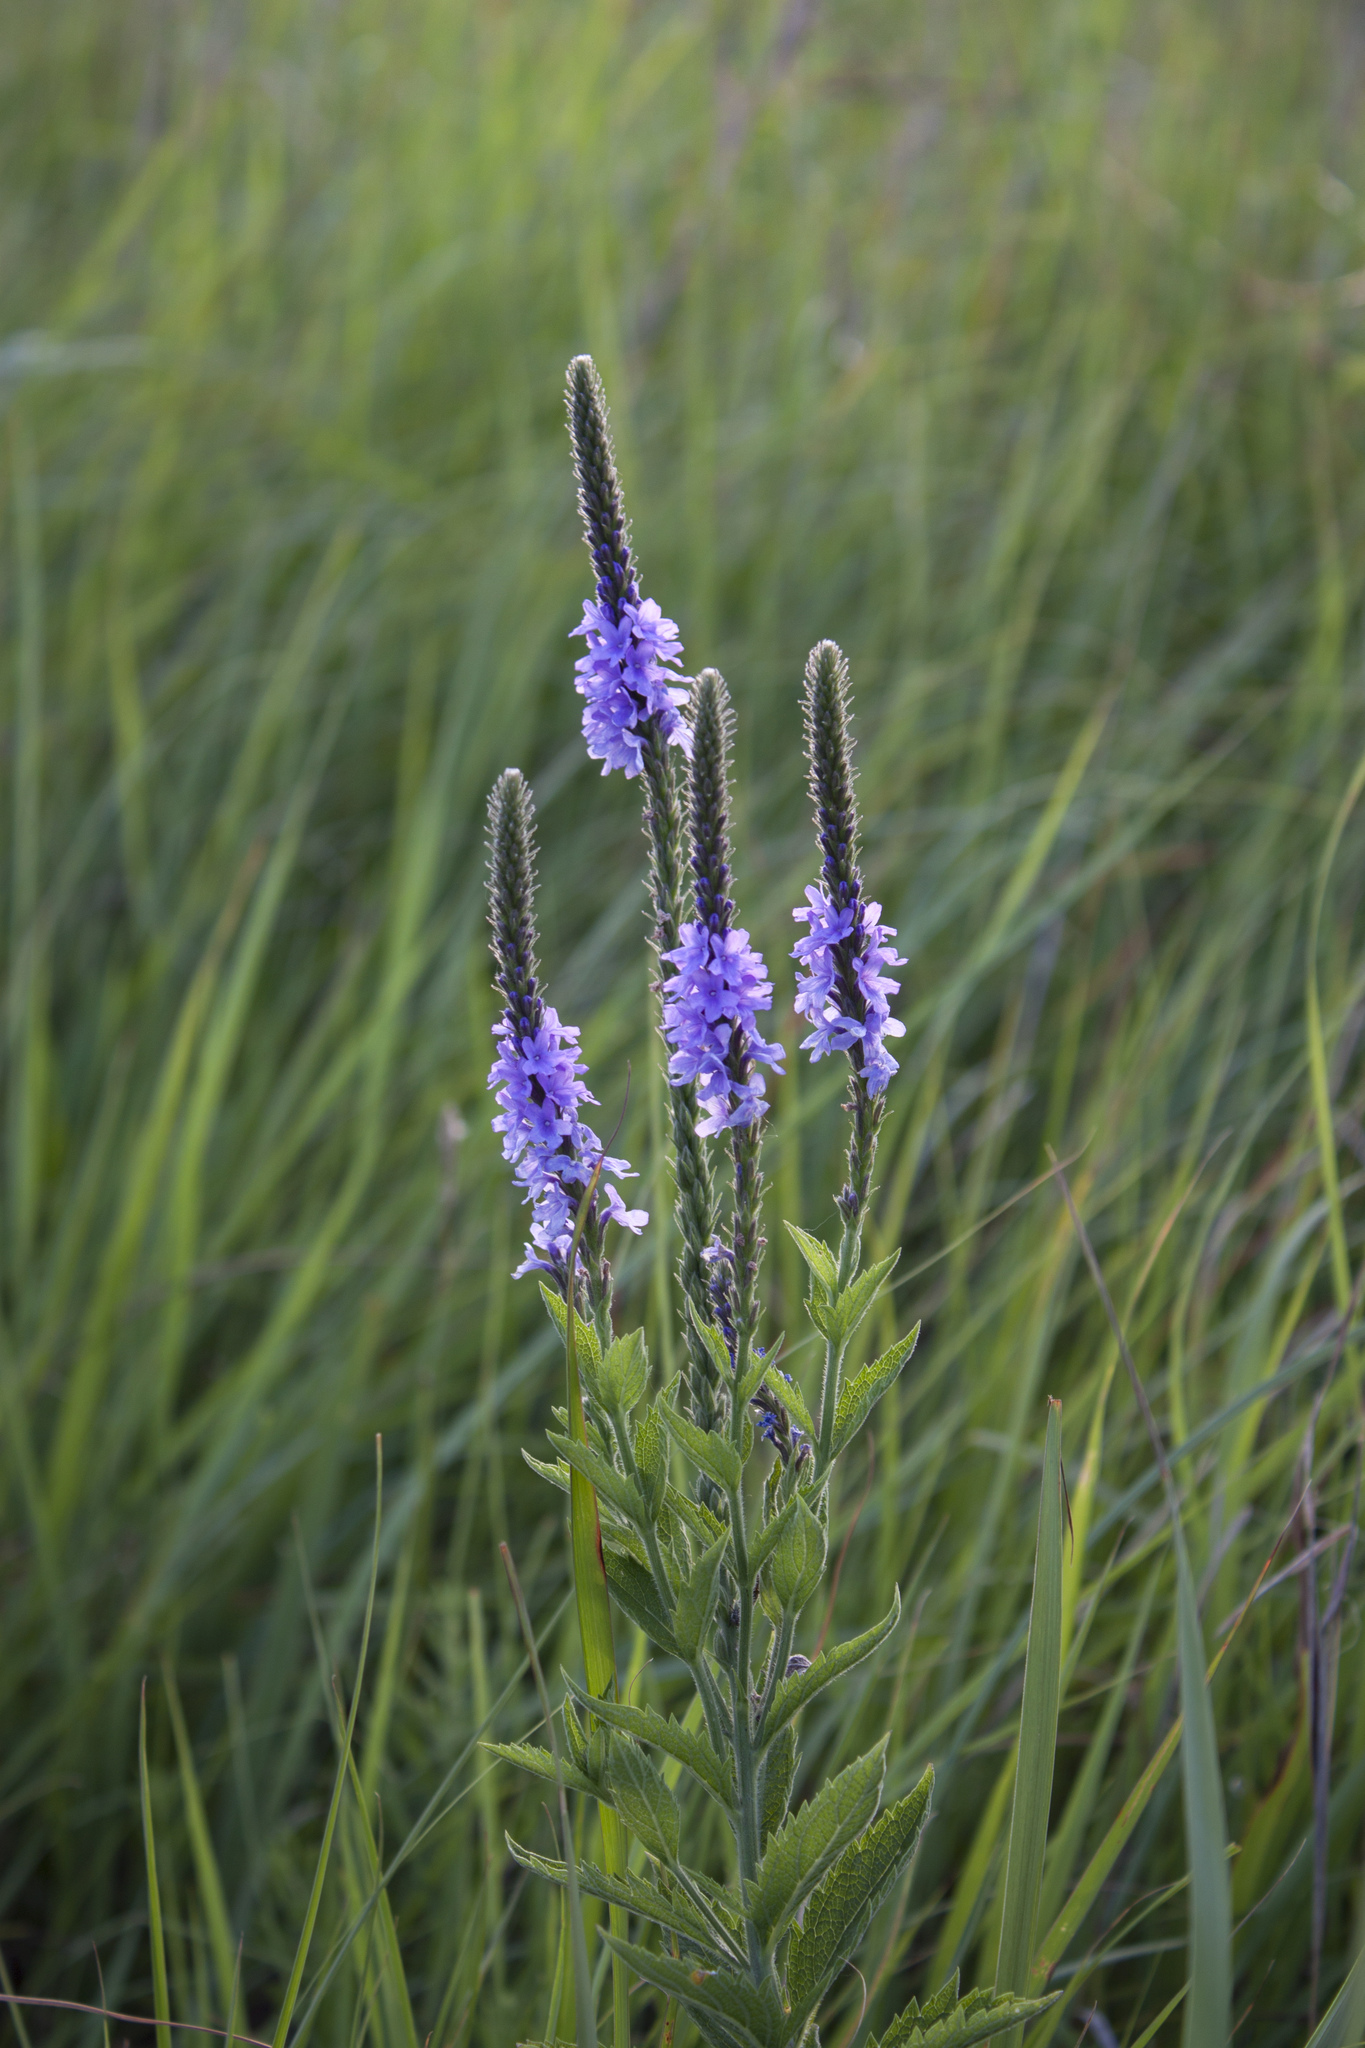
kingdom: Plantae
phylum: Tracheophyta
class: Magnoliopsida
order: Lamiales
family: Verbenaceae
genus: Verbena
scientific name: Verbena stricta
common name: Hoary vervain
